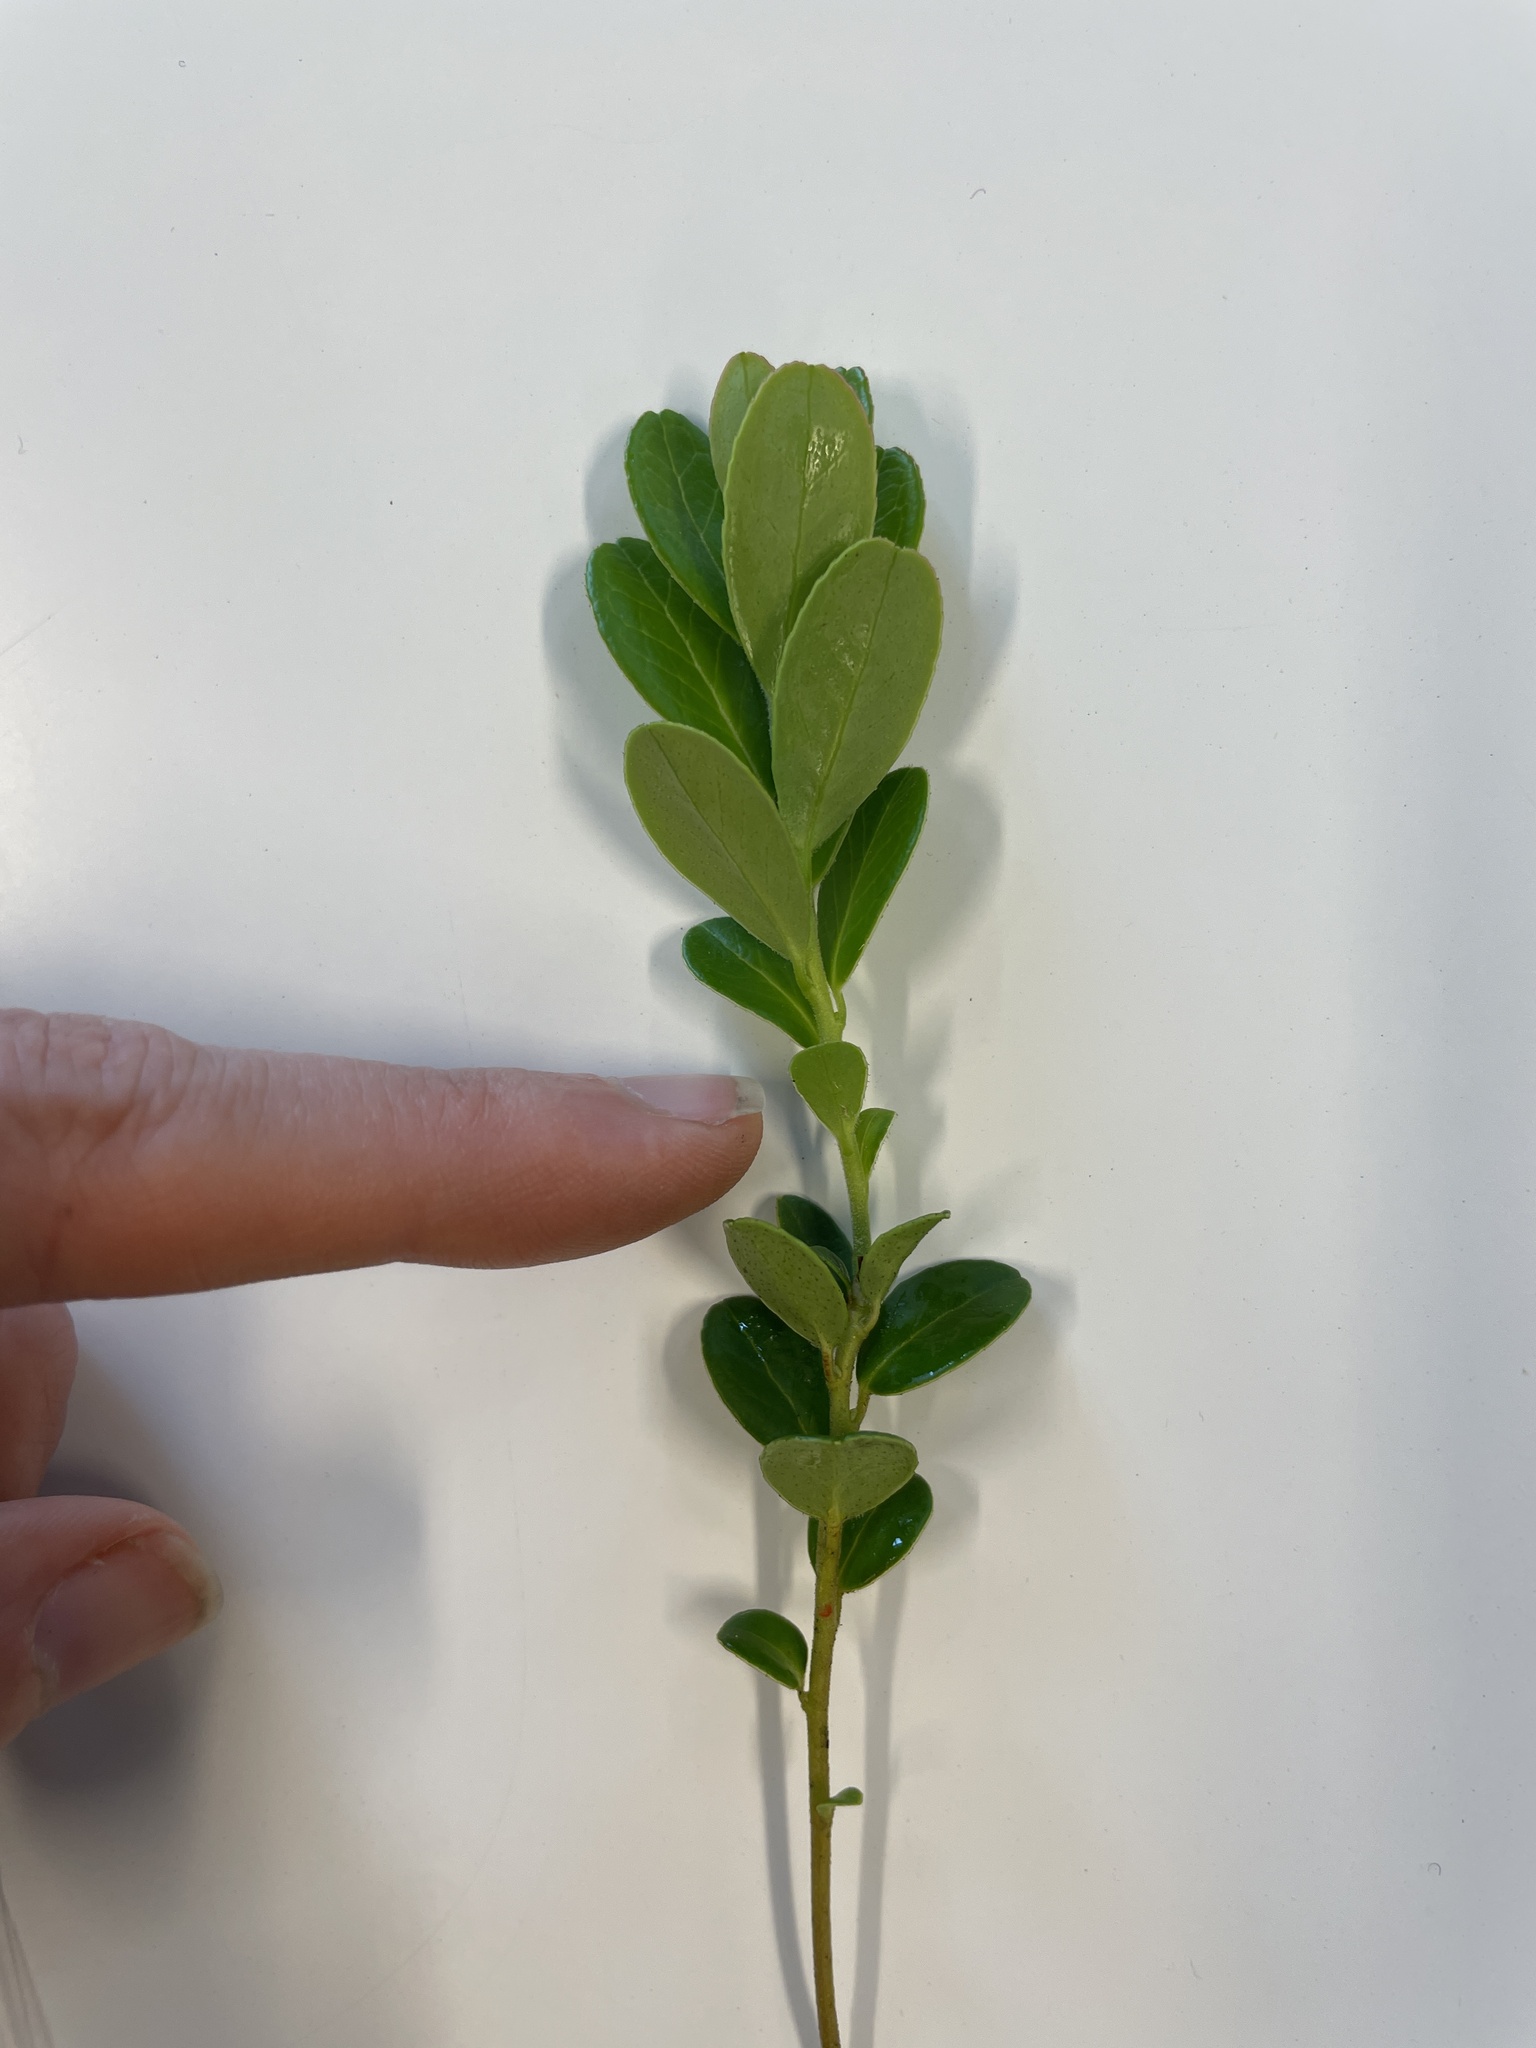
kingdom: Plantae
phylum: Tracheophyta
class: Magnoliopsida
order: Ericales
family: Ericaceae
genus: Vaccinium
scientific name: Vaccinium vitis-idaea
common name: Cowberry
